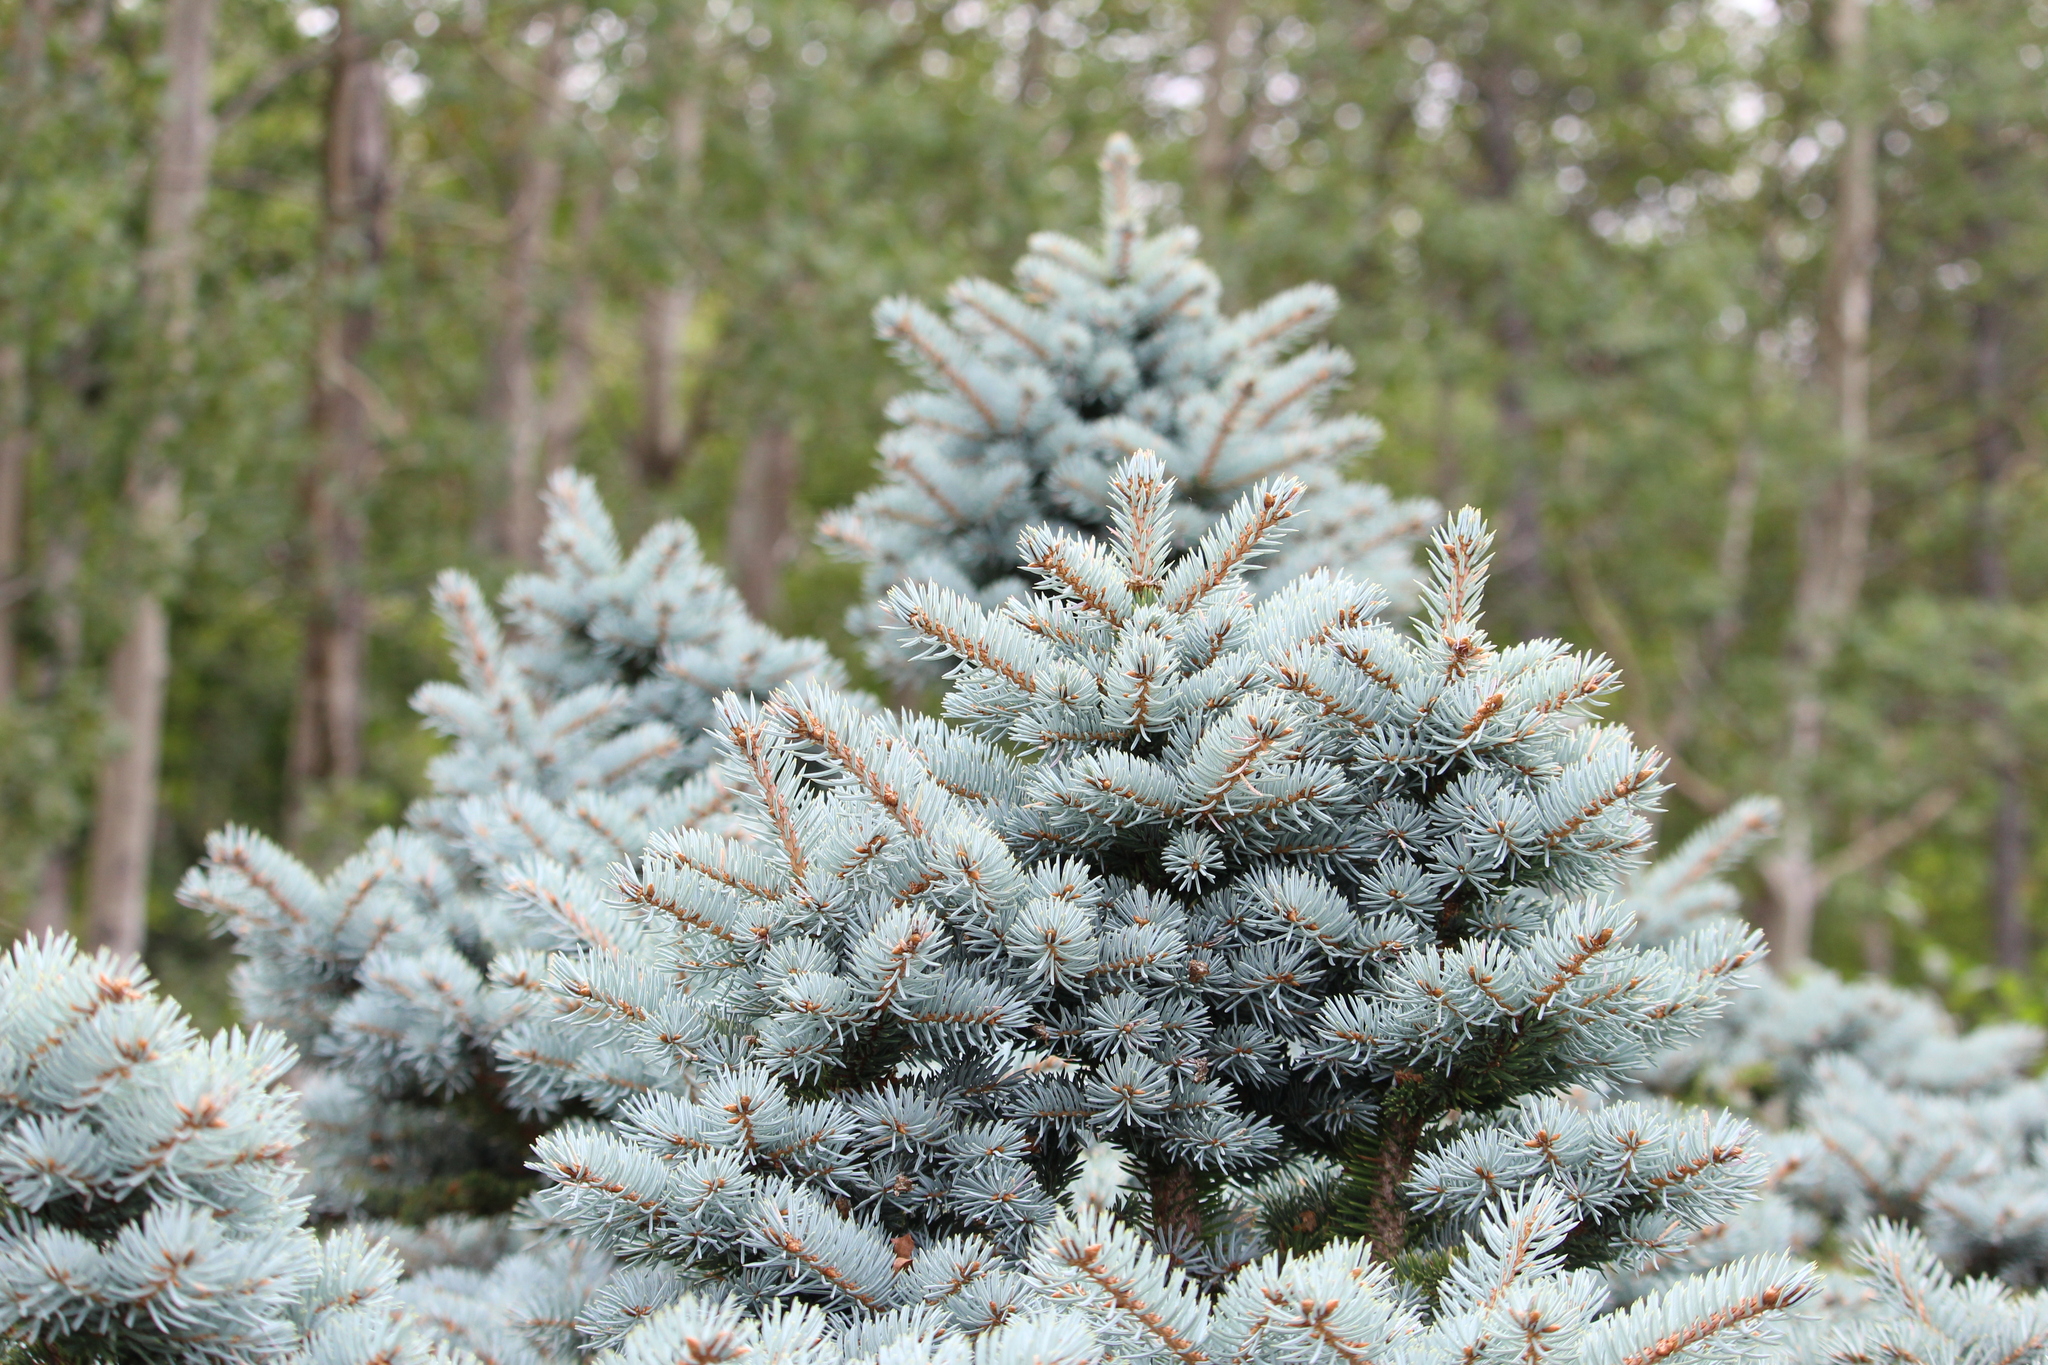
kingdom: Plantae
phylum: Tracheophyta
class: Pinopsida
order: Pinales
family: Pinaceae
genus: Picea
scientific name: Picea pungens
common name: Colorado spruce
